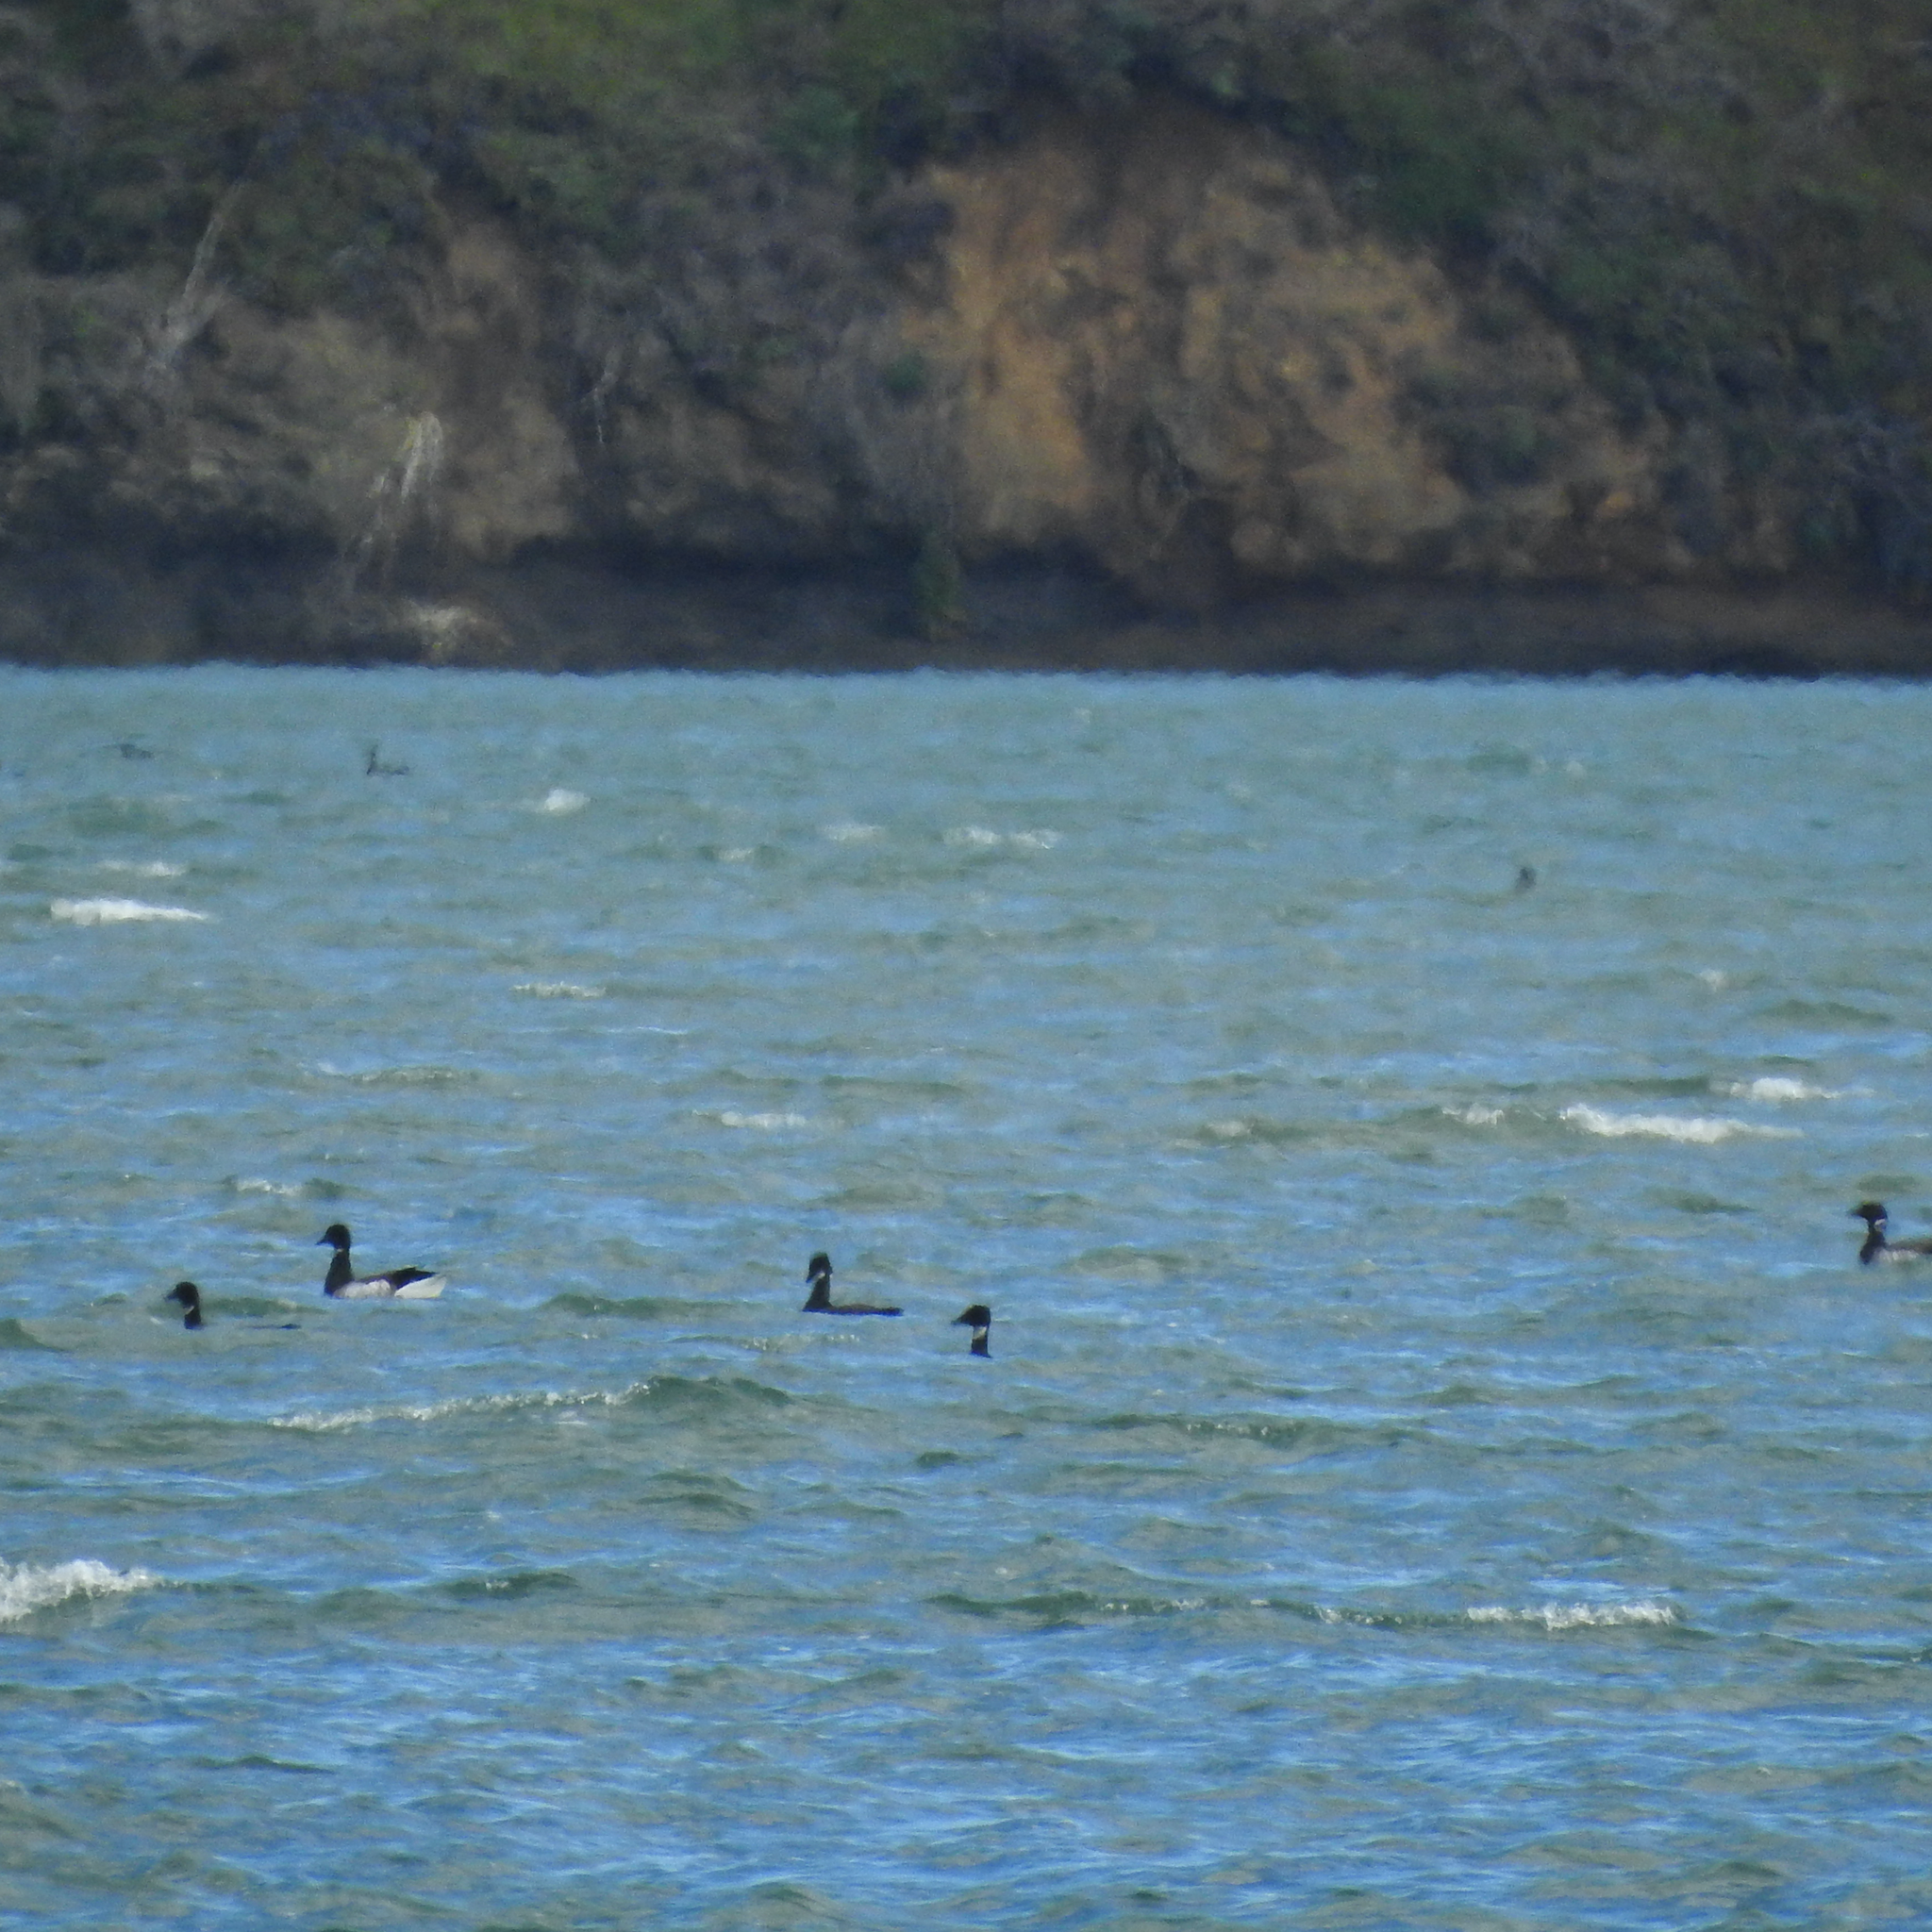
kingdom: Animalia
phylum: Chordata
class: Aves
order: Anseriformes
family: Anatidae
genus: Branta
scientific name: Branta bernicla
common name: Brant goose
